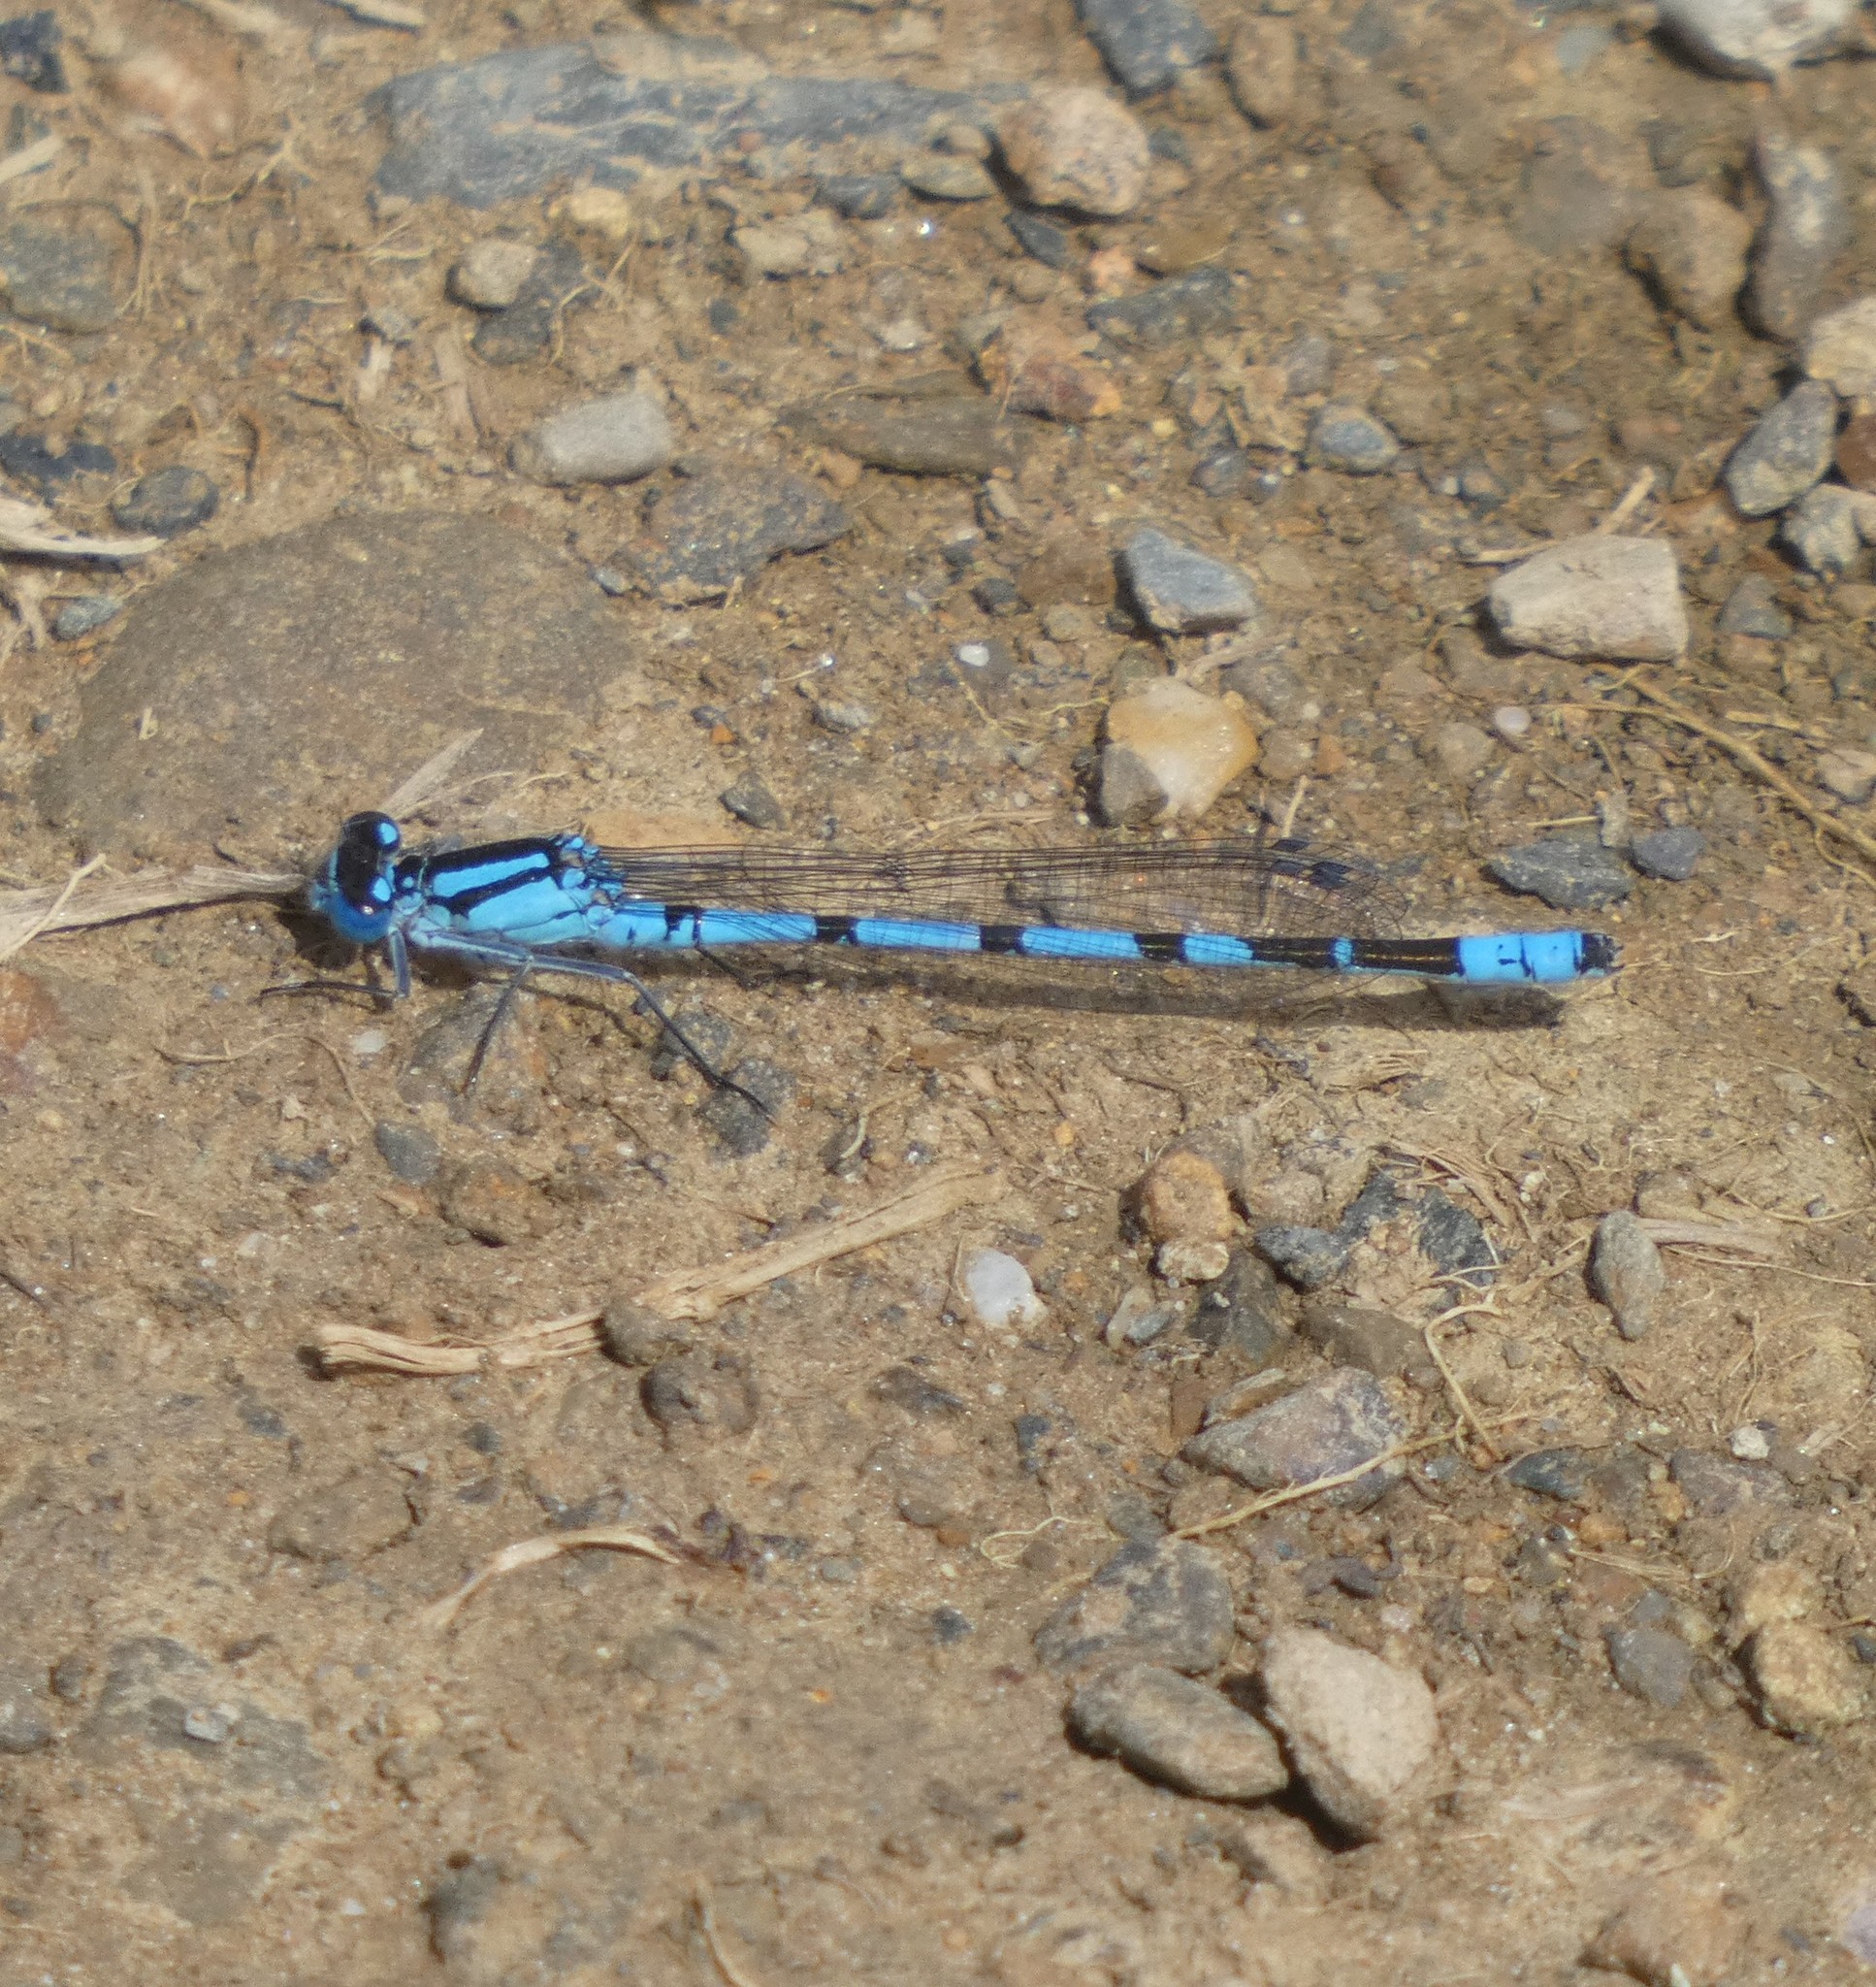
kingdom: Animalia
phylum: Arthropoda
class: Insecta
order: Odonata
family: Coenagrionidae
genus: Enallagma
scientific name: Enallagma cyathigerum
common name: Common blue damselfly
